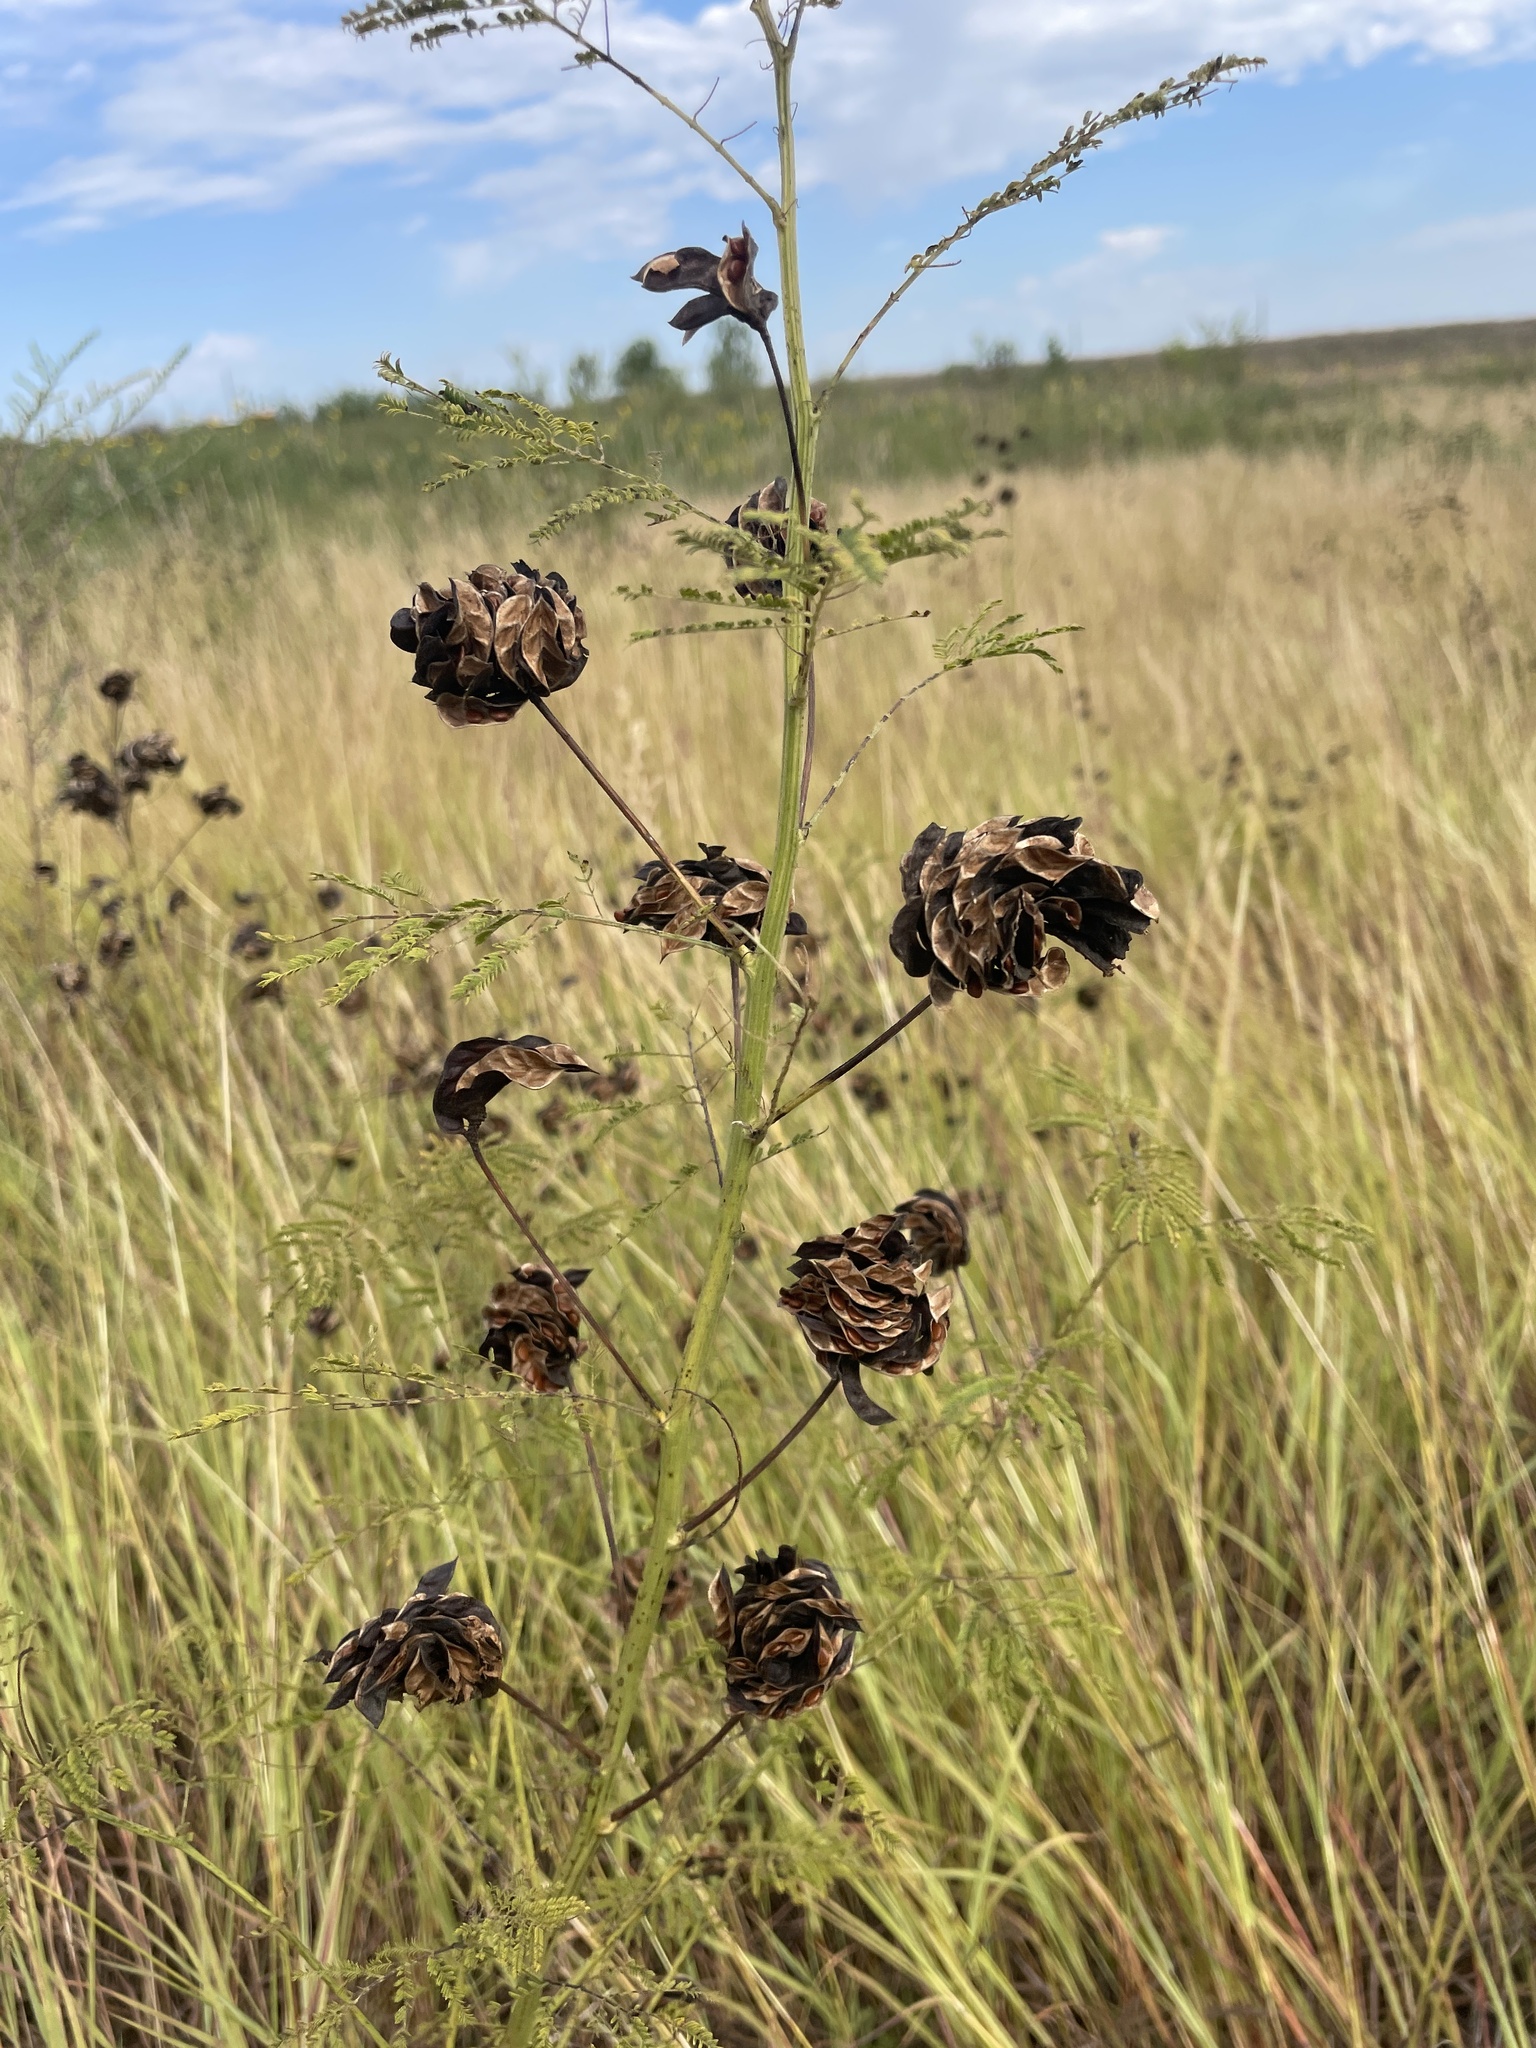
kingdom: Plantae
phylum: Tracheophyta
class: Magnoliopsida
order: Fabales
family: Fabaceae
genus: Desmanthus
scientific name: Desmanthus illinoensis
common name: Illinois bundle-flower
